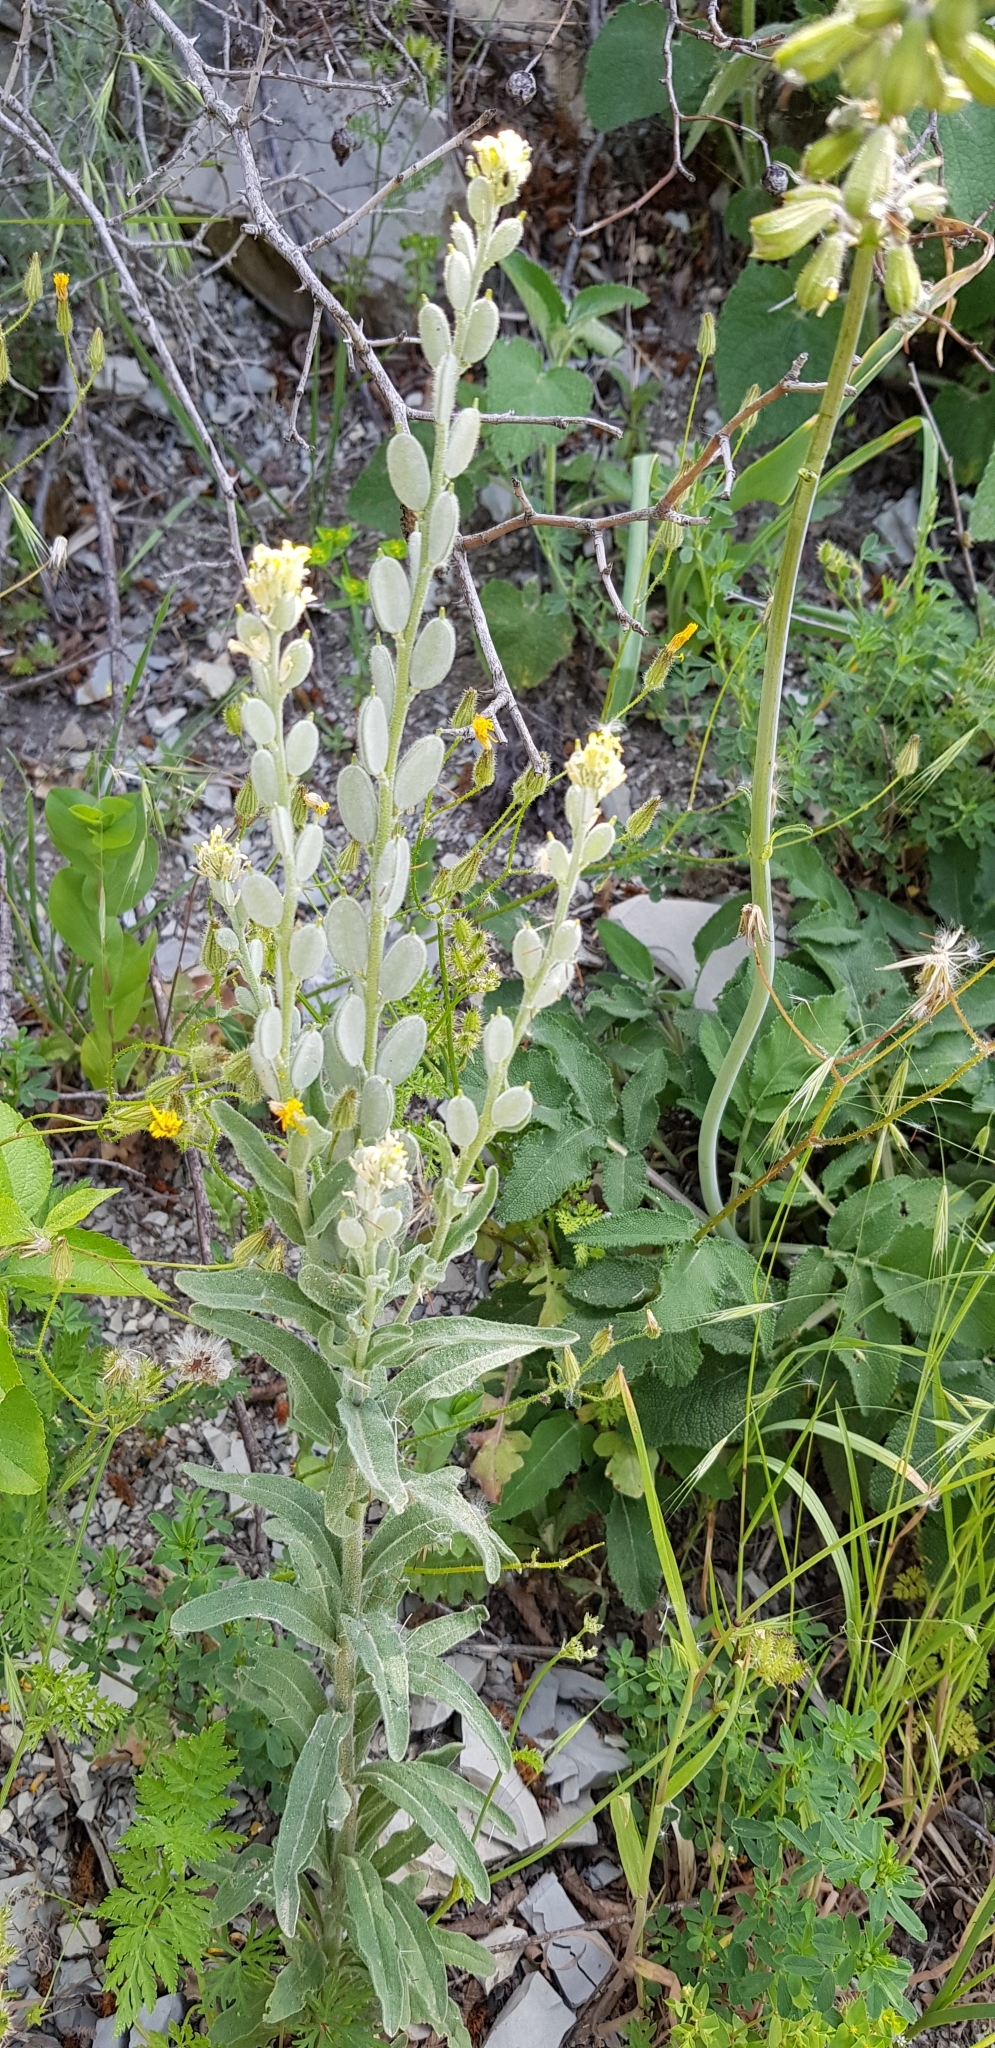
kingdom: Plantae
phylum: Tracheophyta
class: Magnoliopsida
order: Brassicales
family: Brassicaceae
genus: Fibigia
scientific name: Fibigia clypeata
